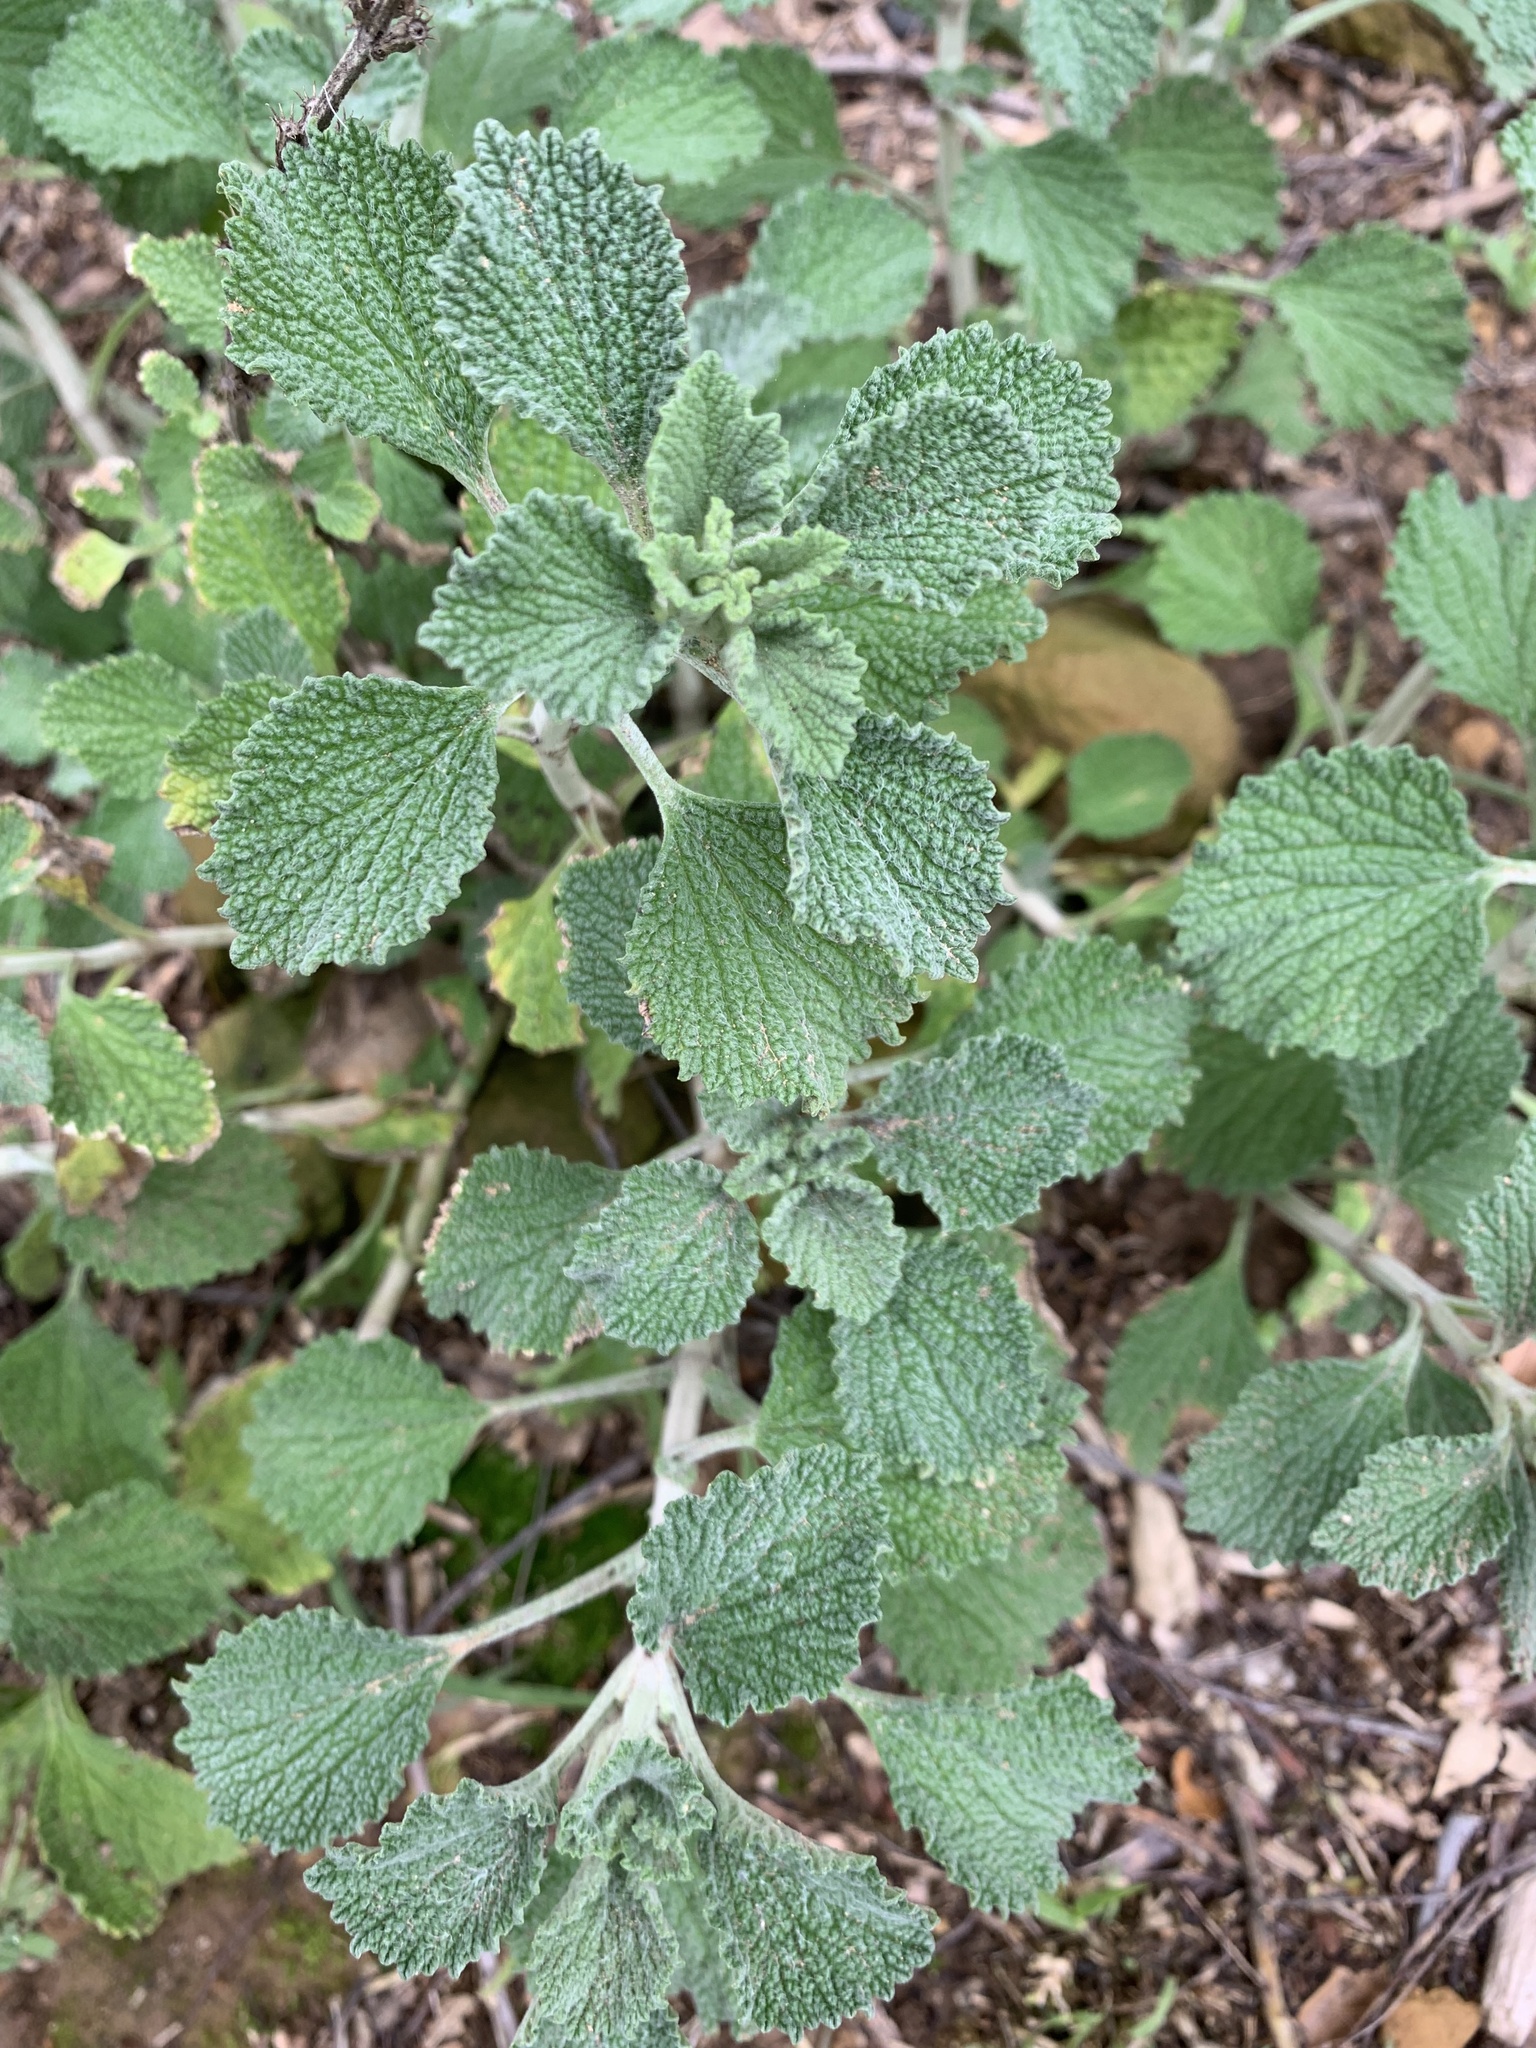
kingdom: Plantae
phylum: Tracheophyta
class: Magnoliopsida
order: Lamiales
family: Lamiaceae
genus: Marrubium
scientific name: Marrubium vulgare
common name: Horehound
